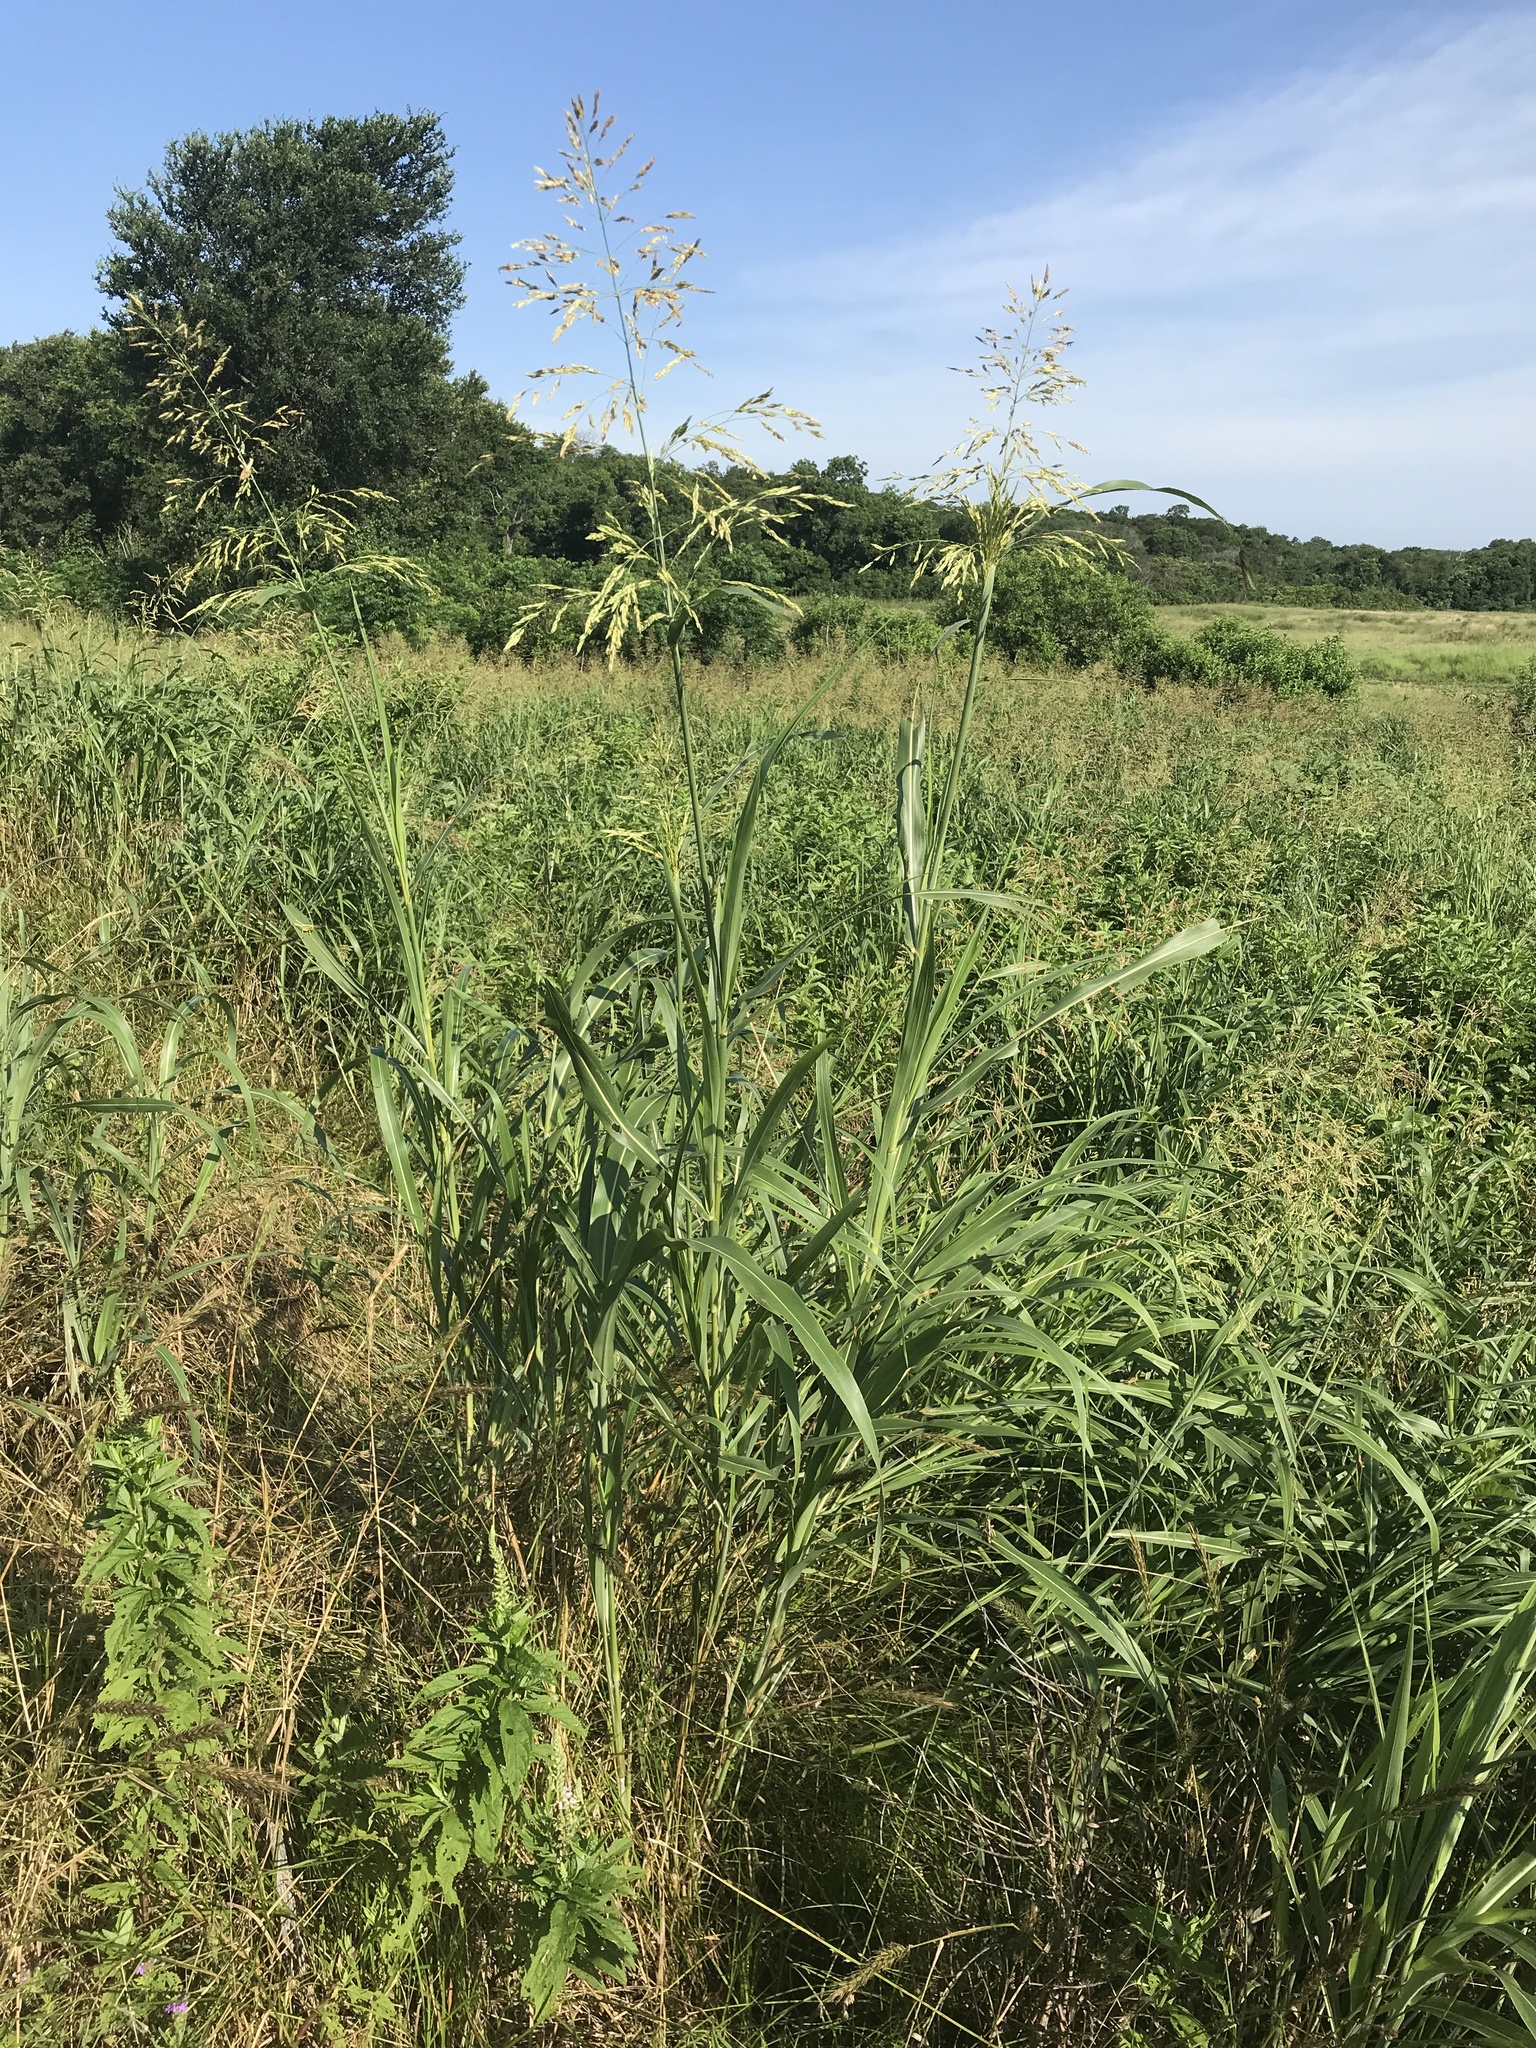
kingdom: Plantae
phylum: Tracheophyta
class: Liliopsida
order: Poales
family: Poaceae
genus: Sorghum
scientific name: Sorghum halepense
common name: Johnson-grass
